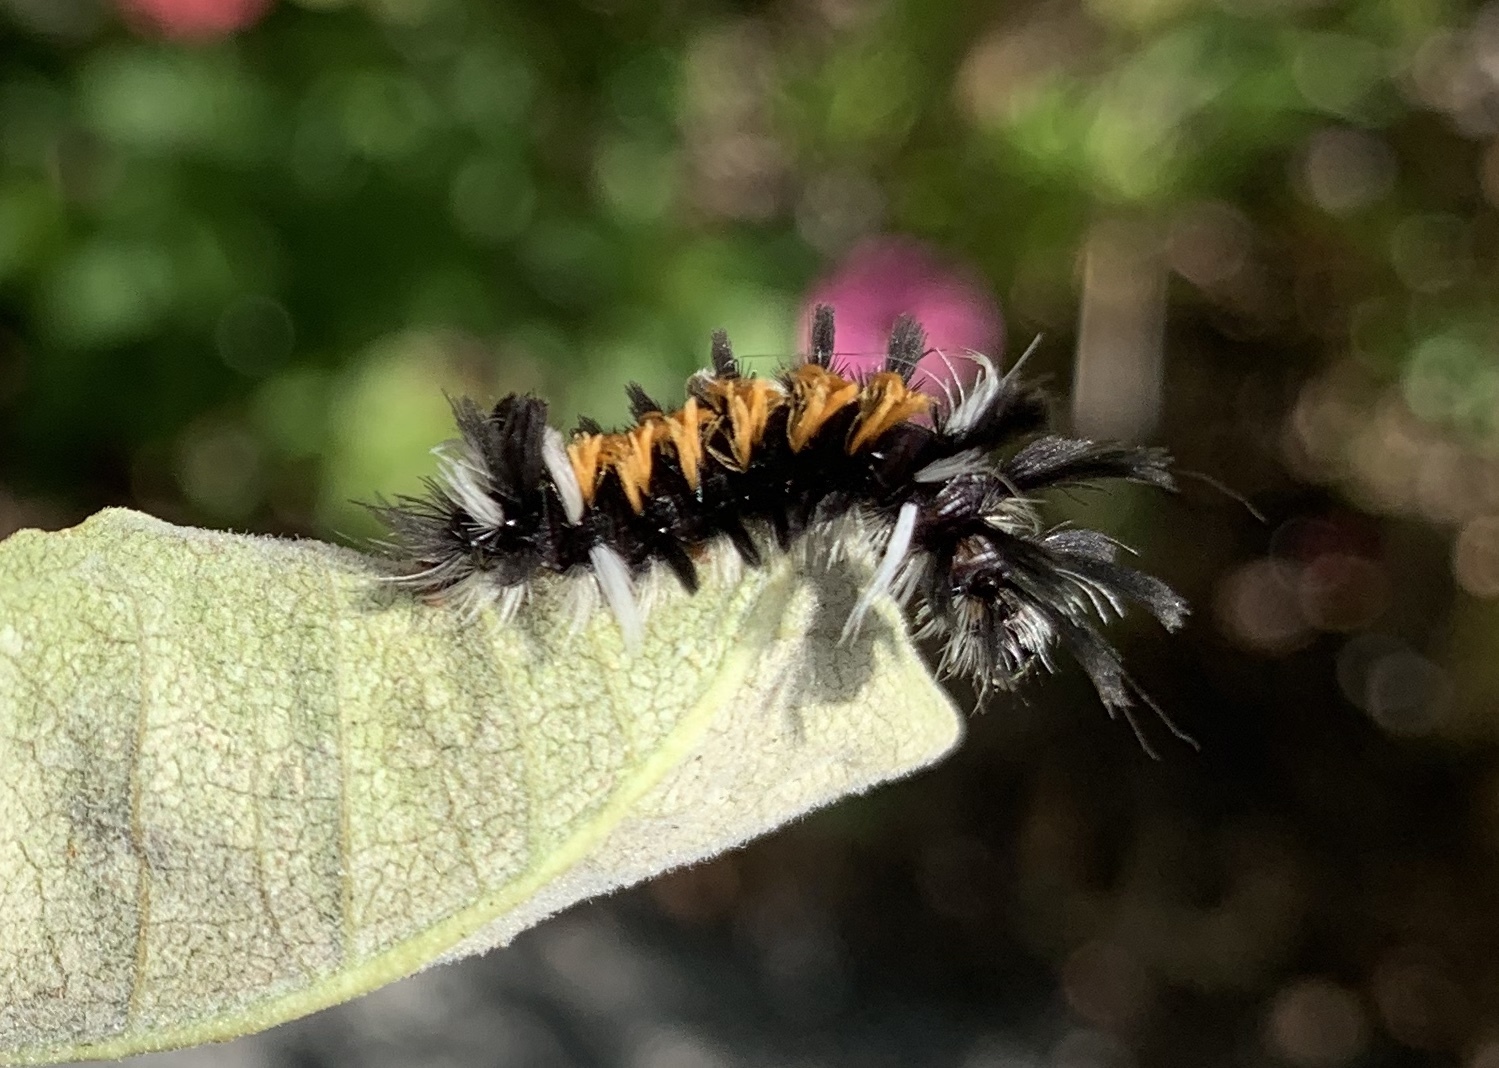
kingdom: Animalia
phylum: Arthropoda
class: Insecta
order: Lepidoptera
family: Erebidae
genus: Euchaetes
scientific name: Euchaetes egle
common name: Milkweed tussock moth
